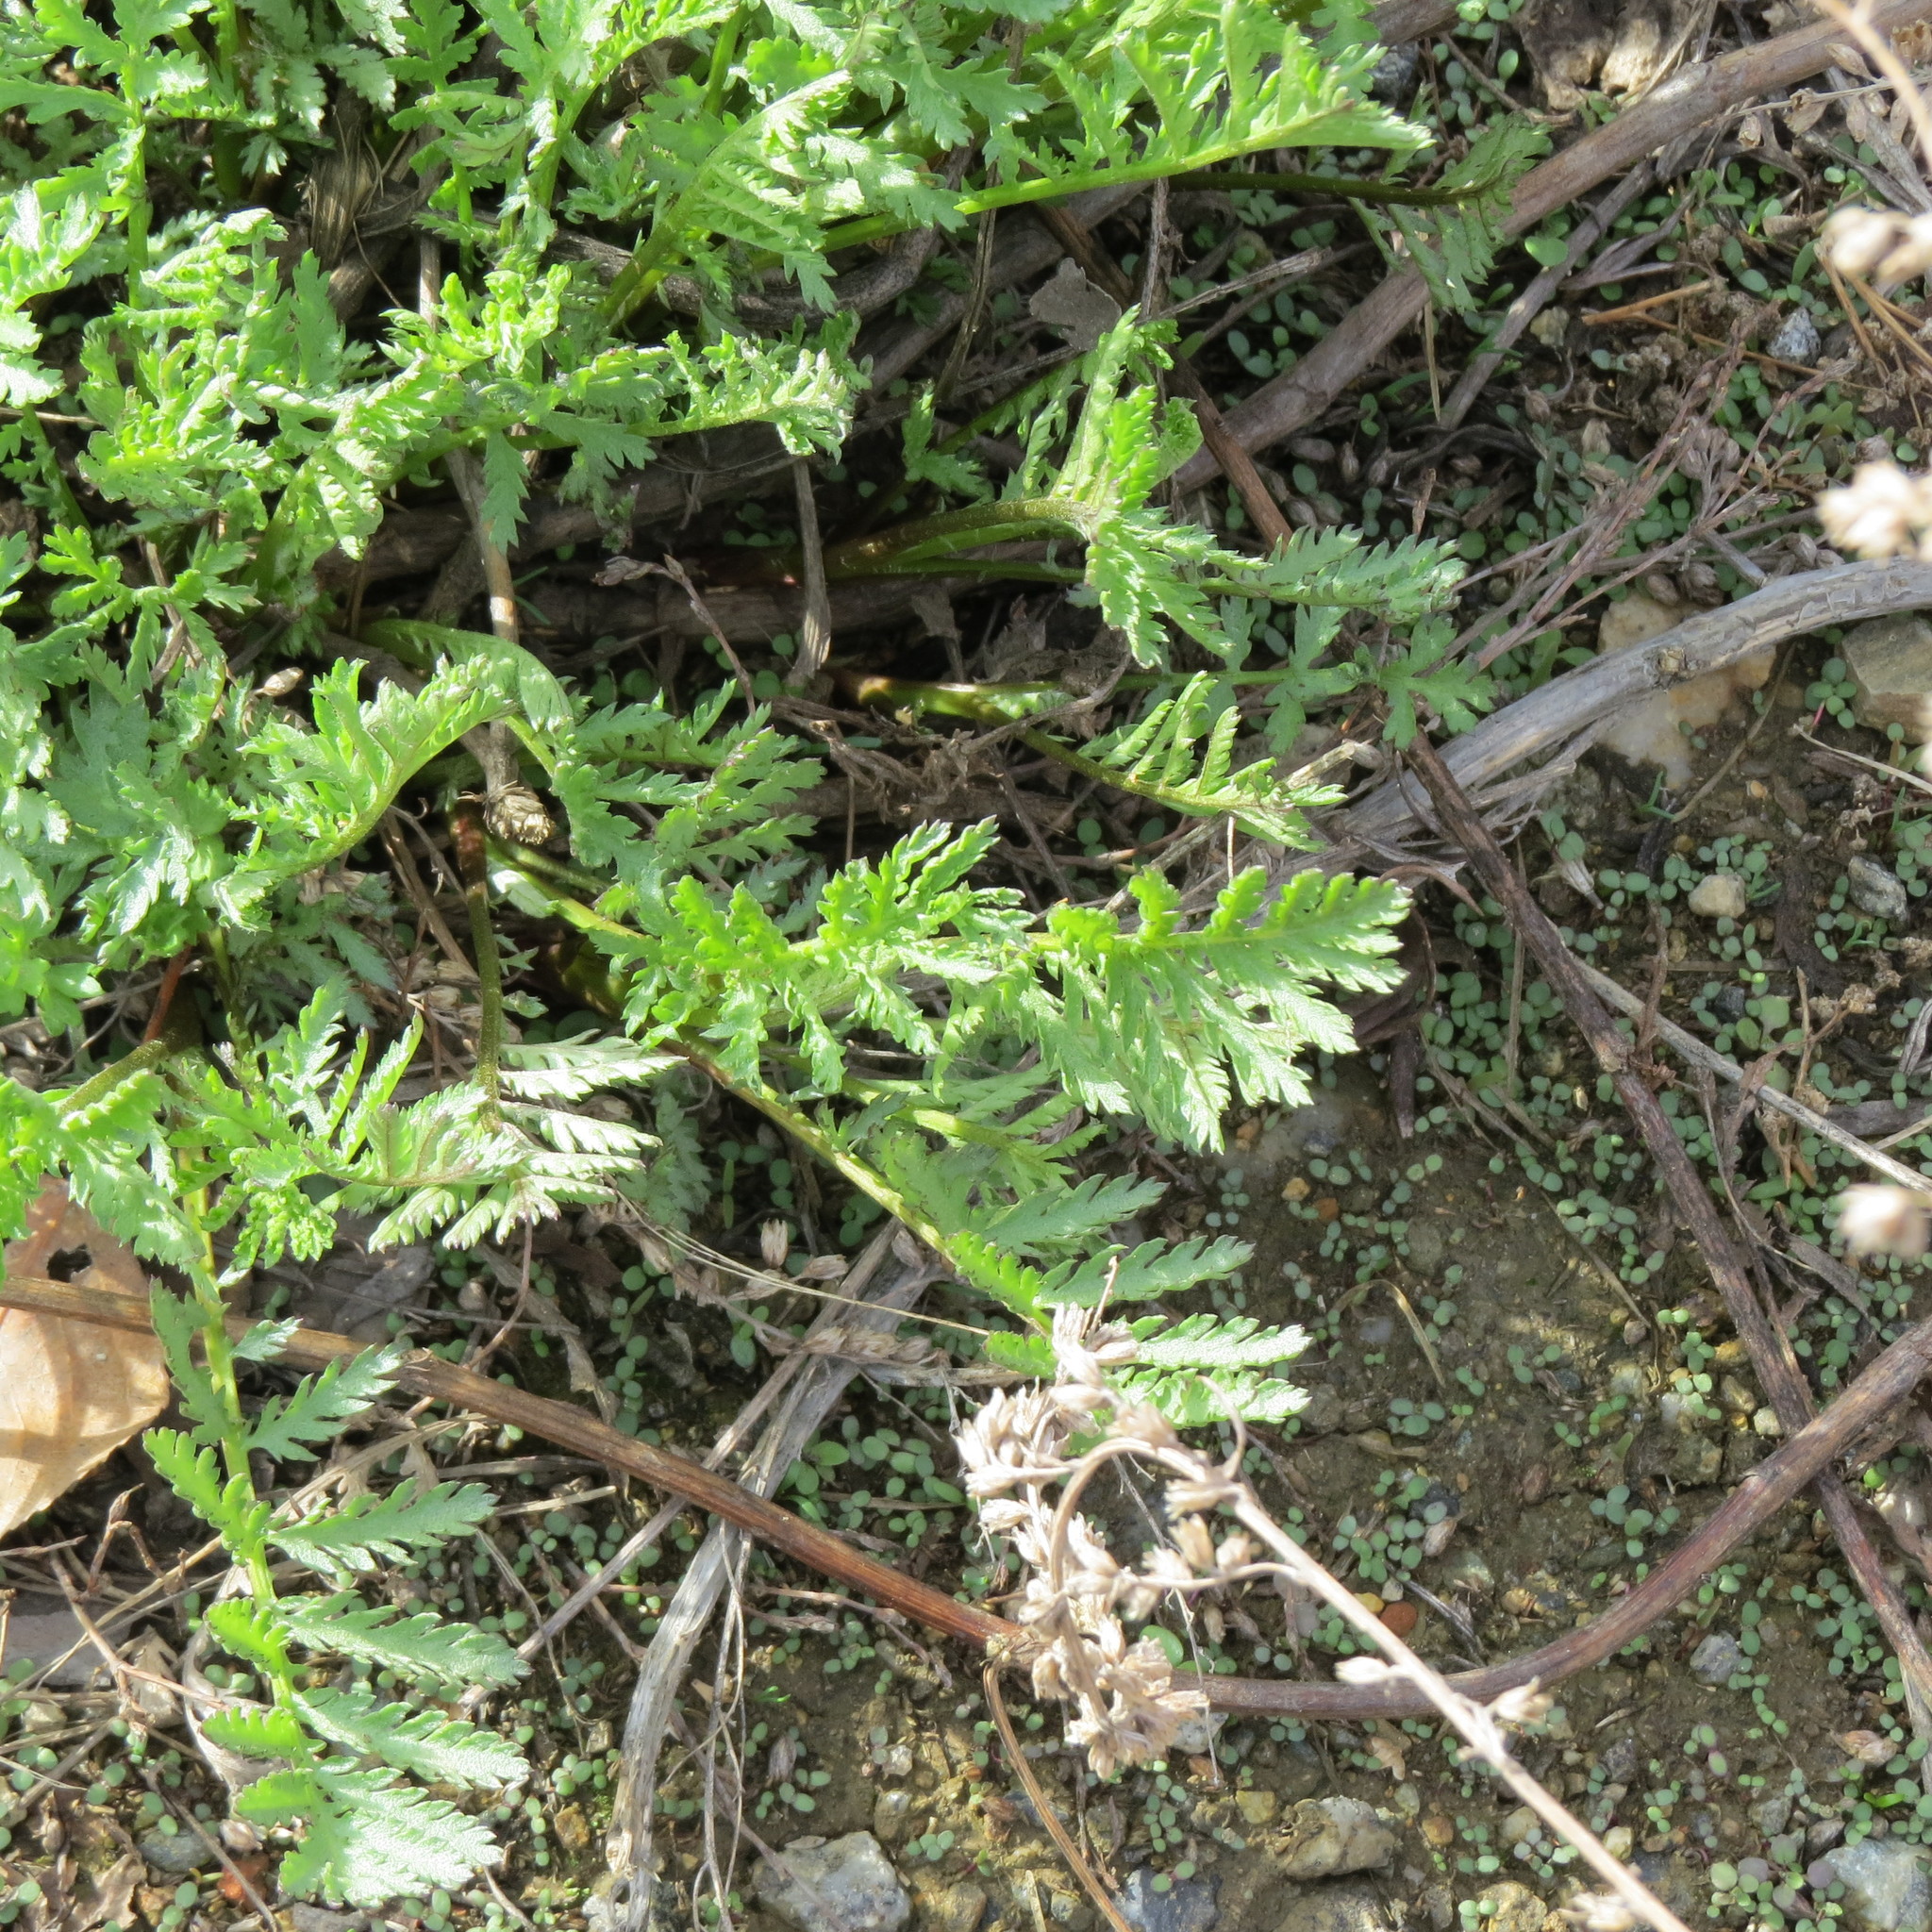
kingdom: Plantae
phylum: Tracheophyta
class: Magnoliopsida
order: Asterales
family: Asteraceae
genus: Tanacetum
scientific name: Tanacetum vulgare
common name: Common tansy
